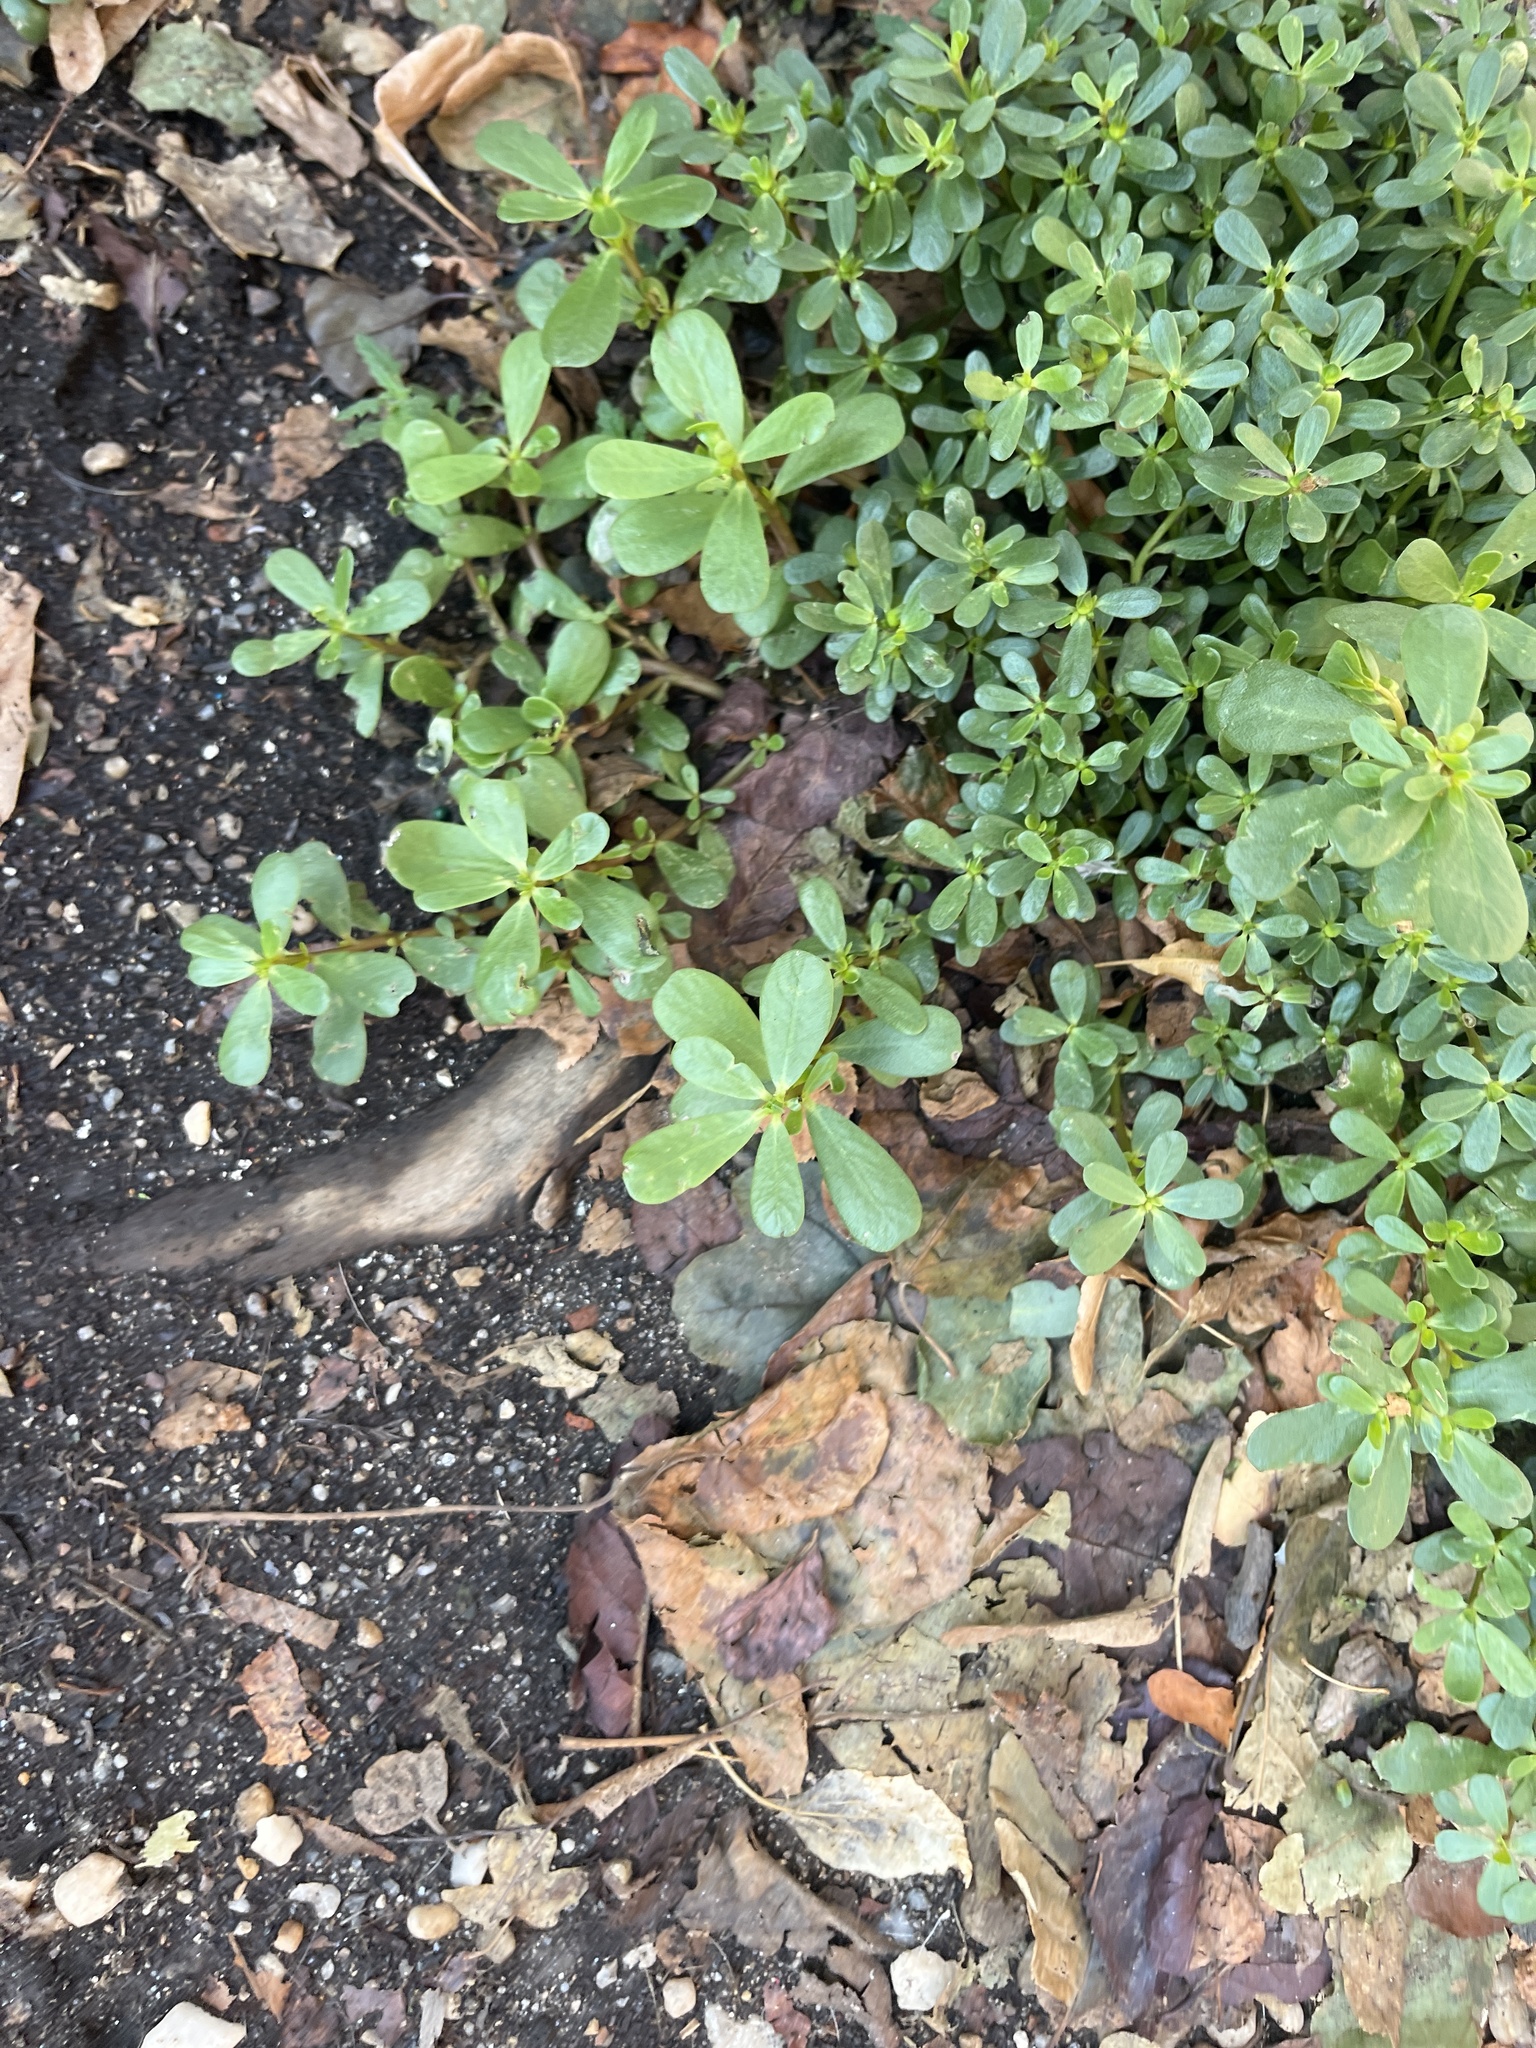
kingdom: Plantae
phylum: Tracheophyta
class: Magnoliopsida
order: Caryophyllales
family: Portulacaceae
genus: Portulaca
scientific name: Portulaca oleracea
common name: Common purslane
